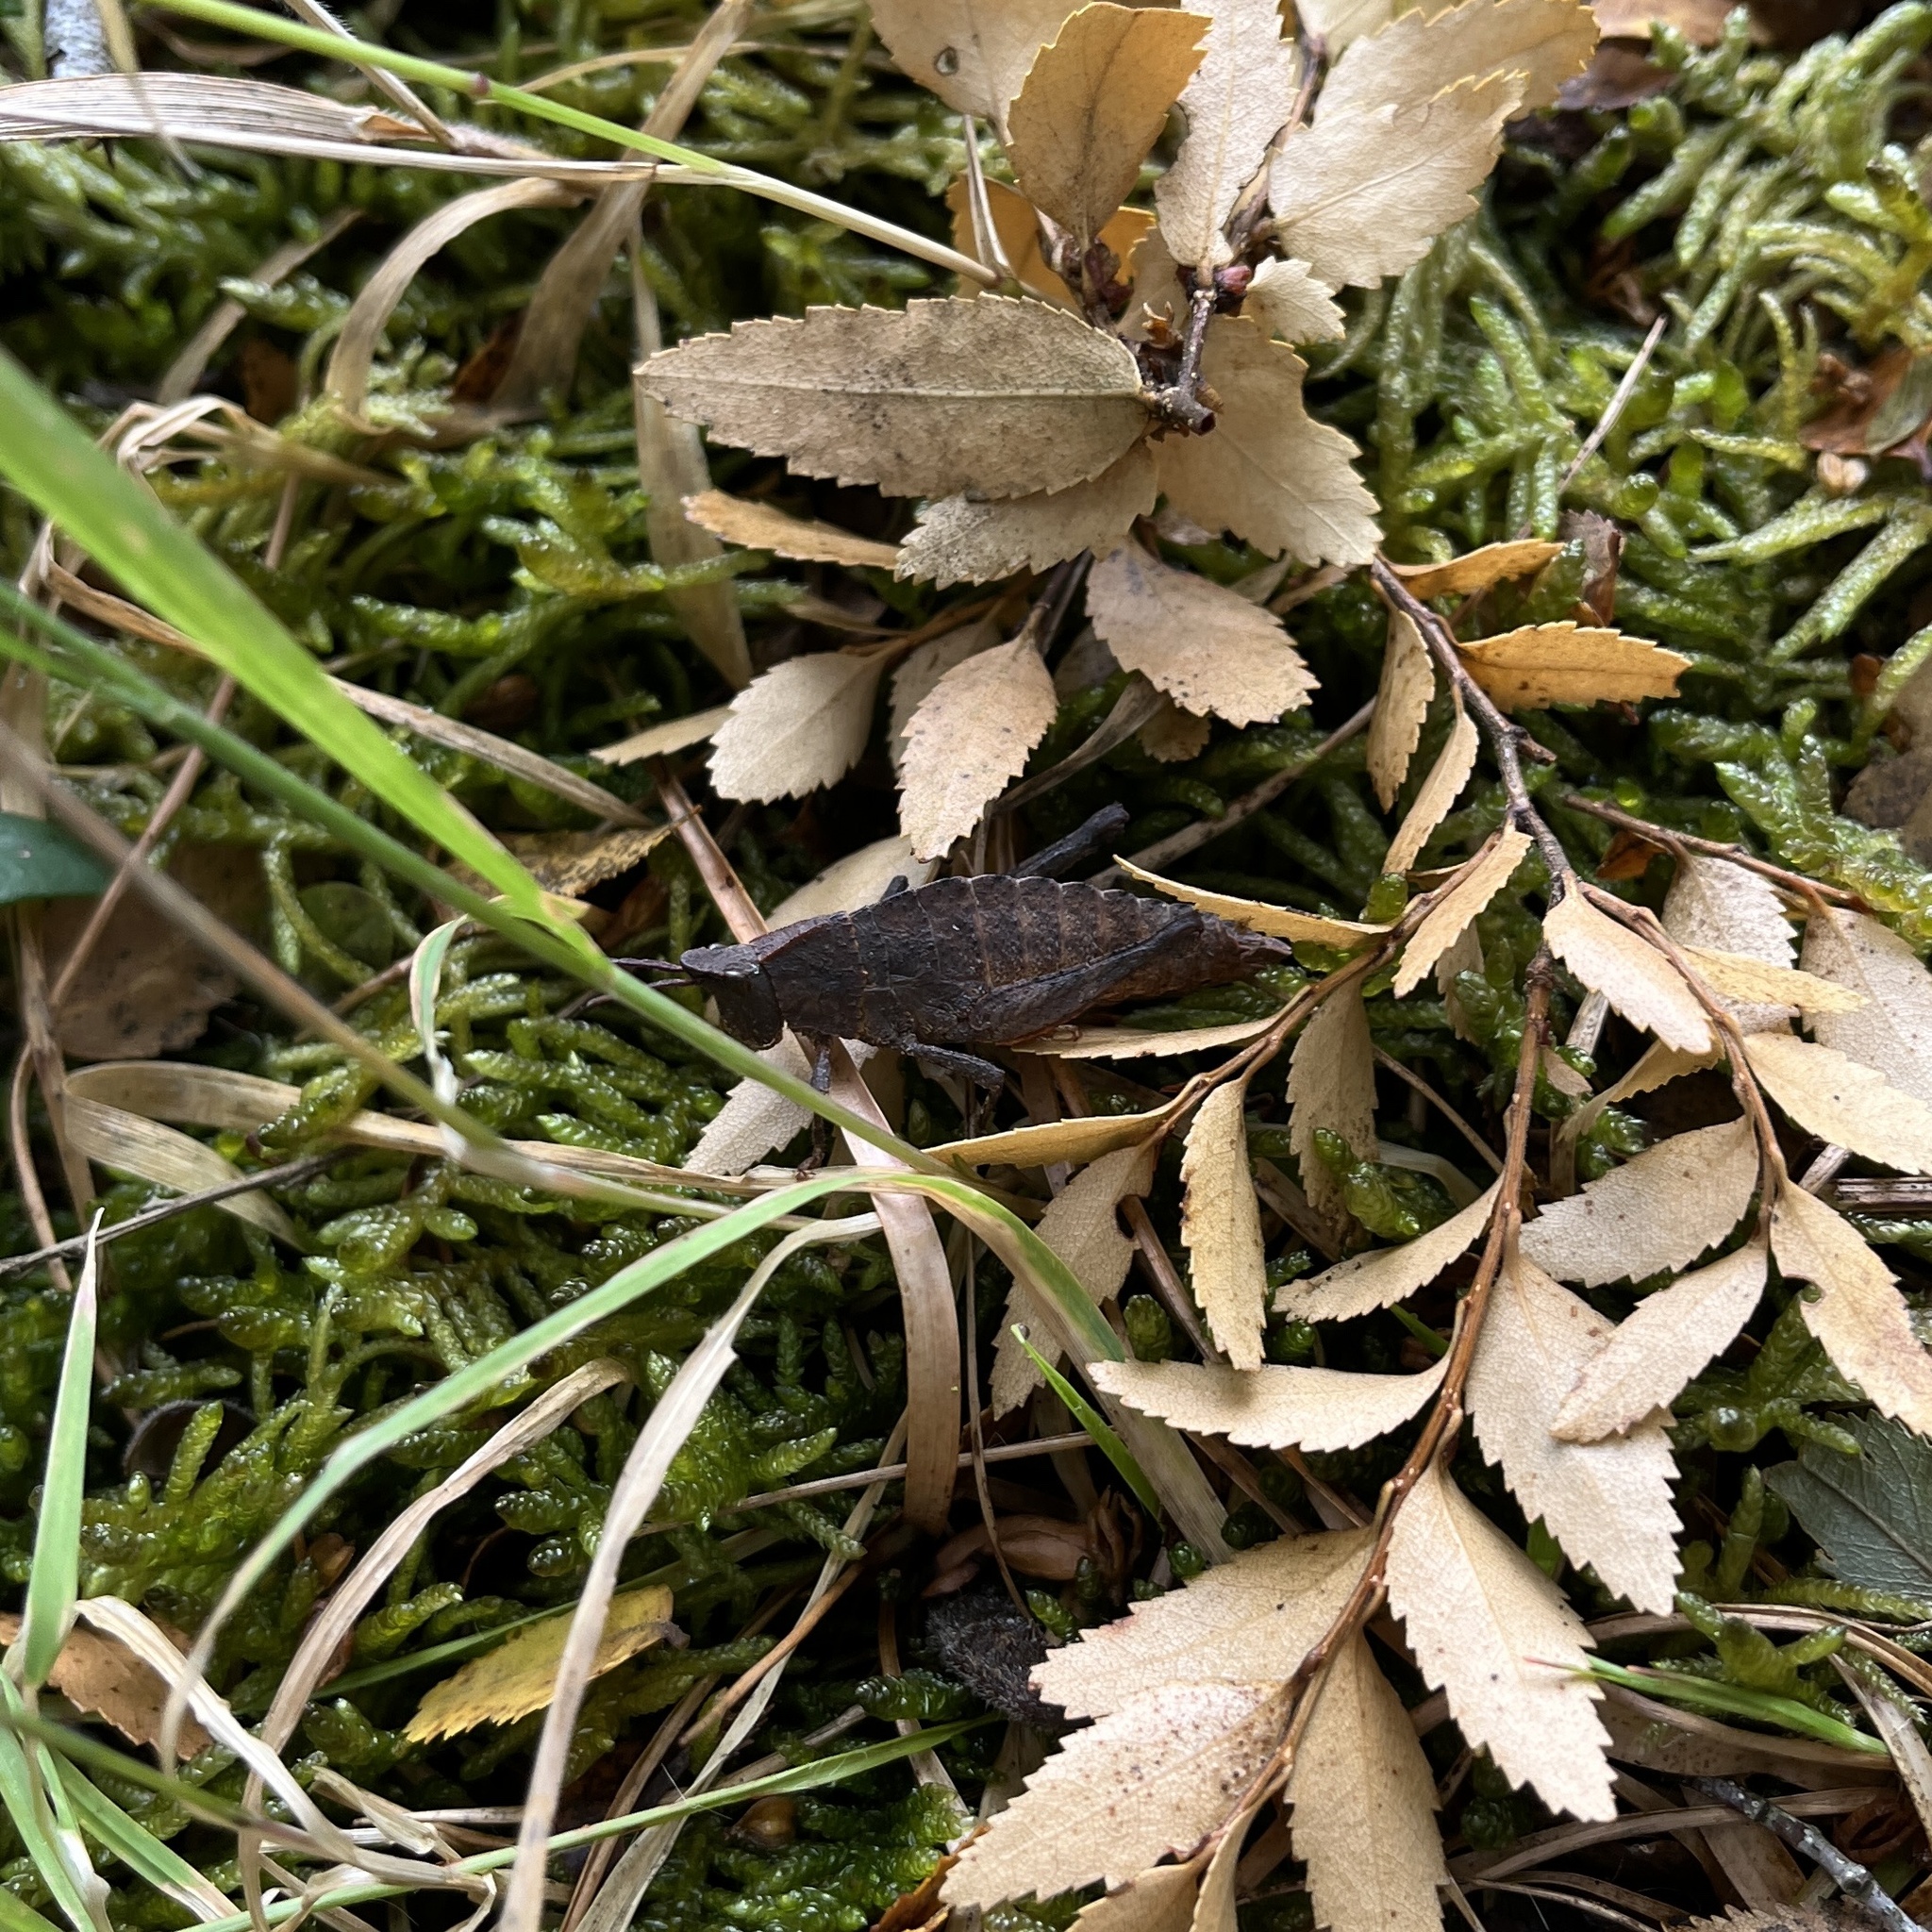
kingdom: Animalia
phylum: Arthropoda
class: Insecta
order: Orthoptera
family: Tristiridae
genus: Tropidostethus
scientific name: Tropidostethus angusticollis
